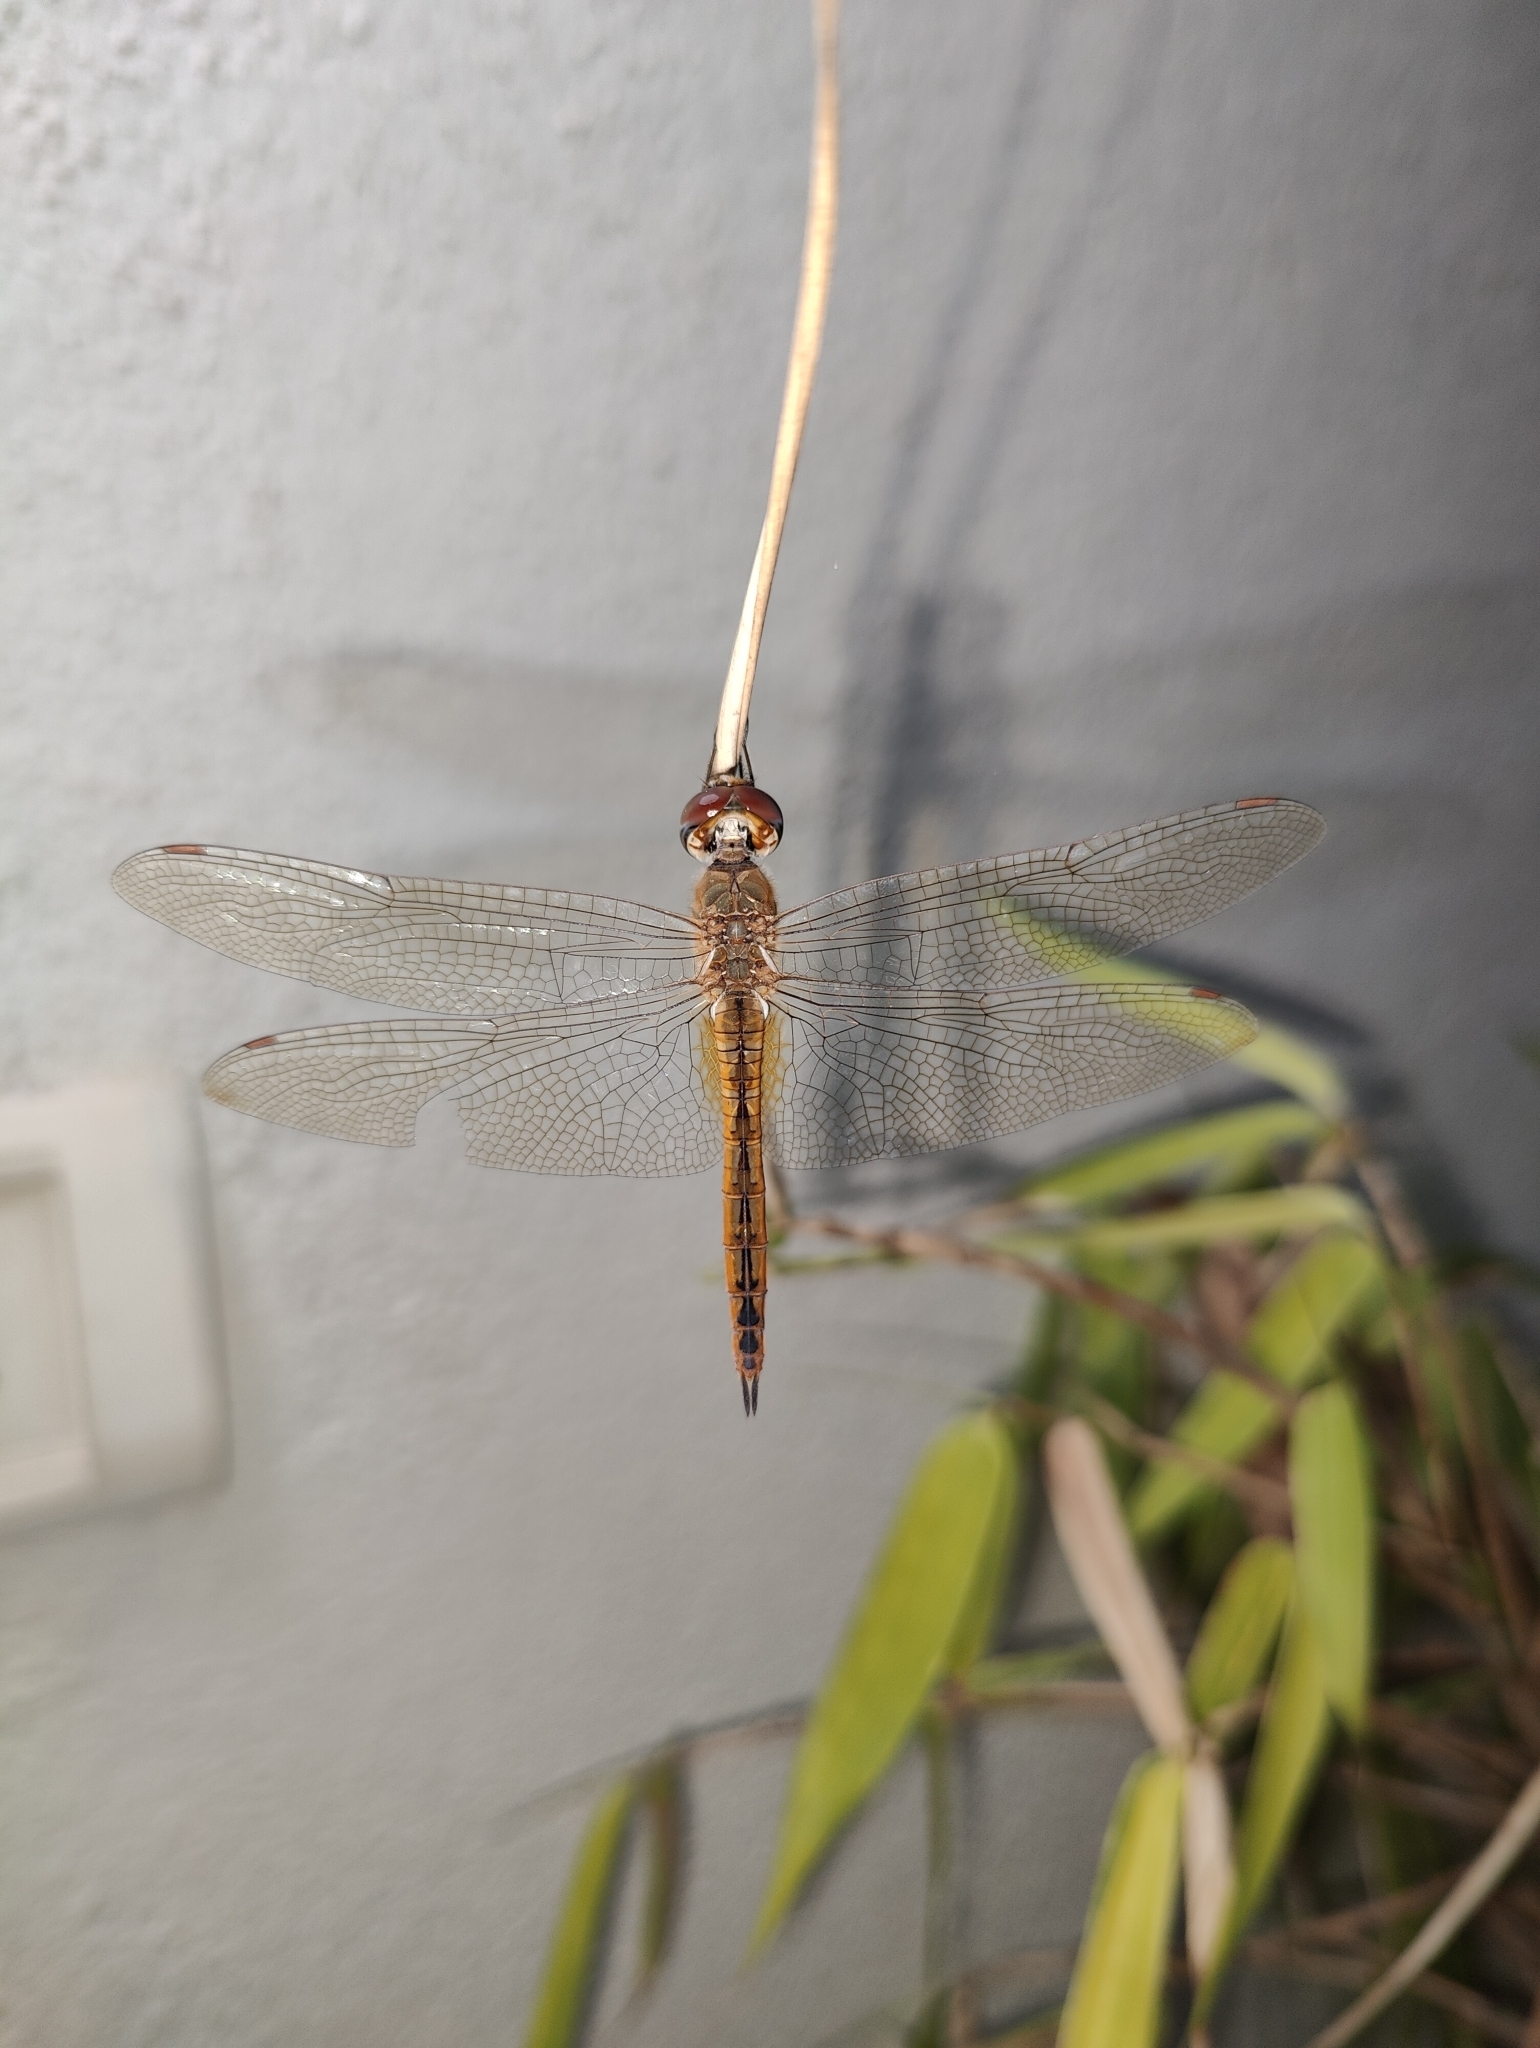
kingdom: Animalia
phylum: Arthropoda
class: Insecta
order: Odonata
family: Libellulidae
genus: Pantala
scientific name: Pantala flavescens
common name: Wandering glider
